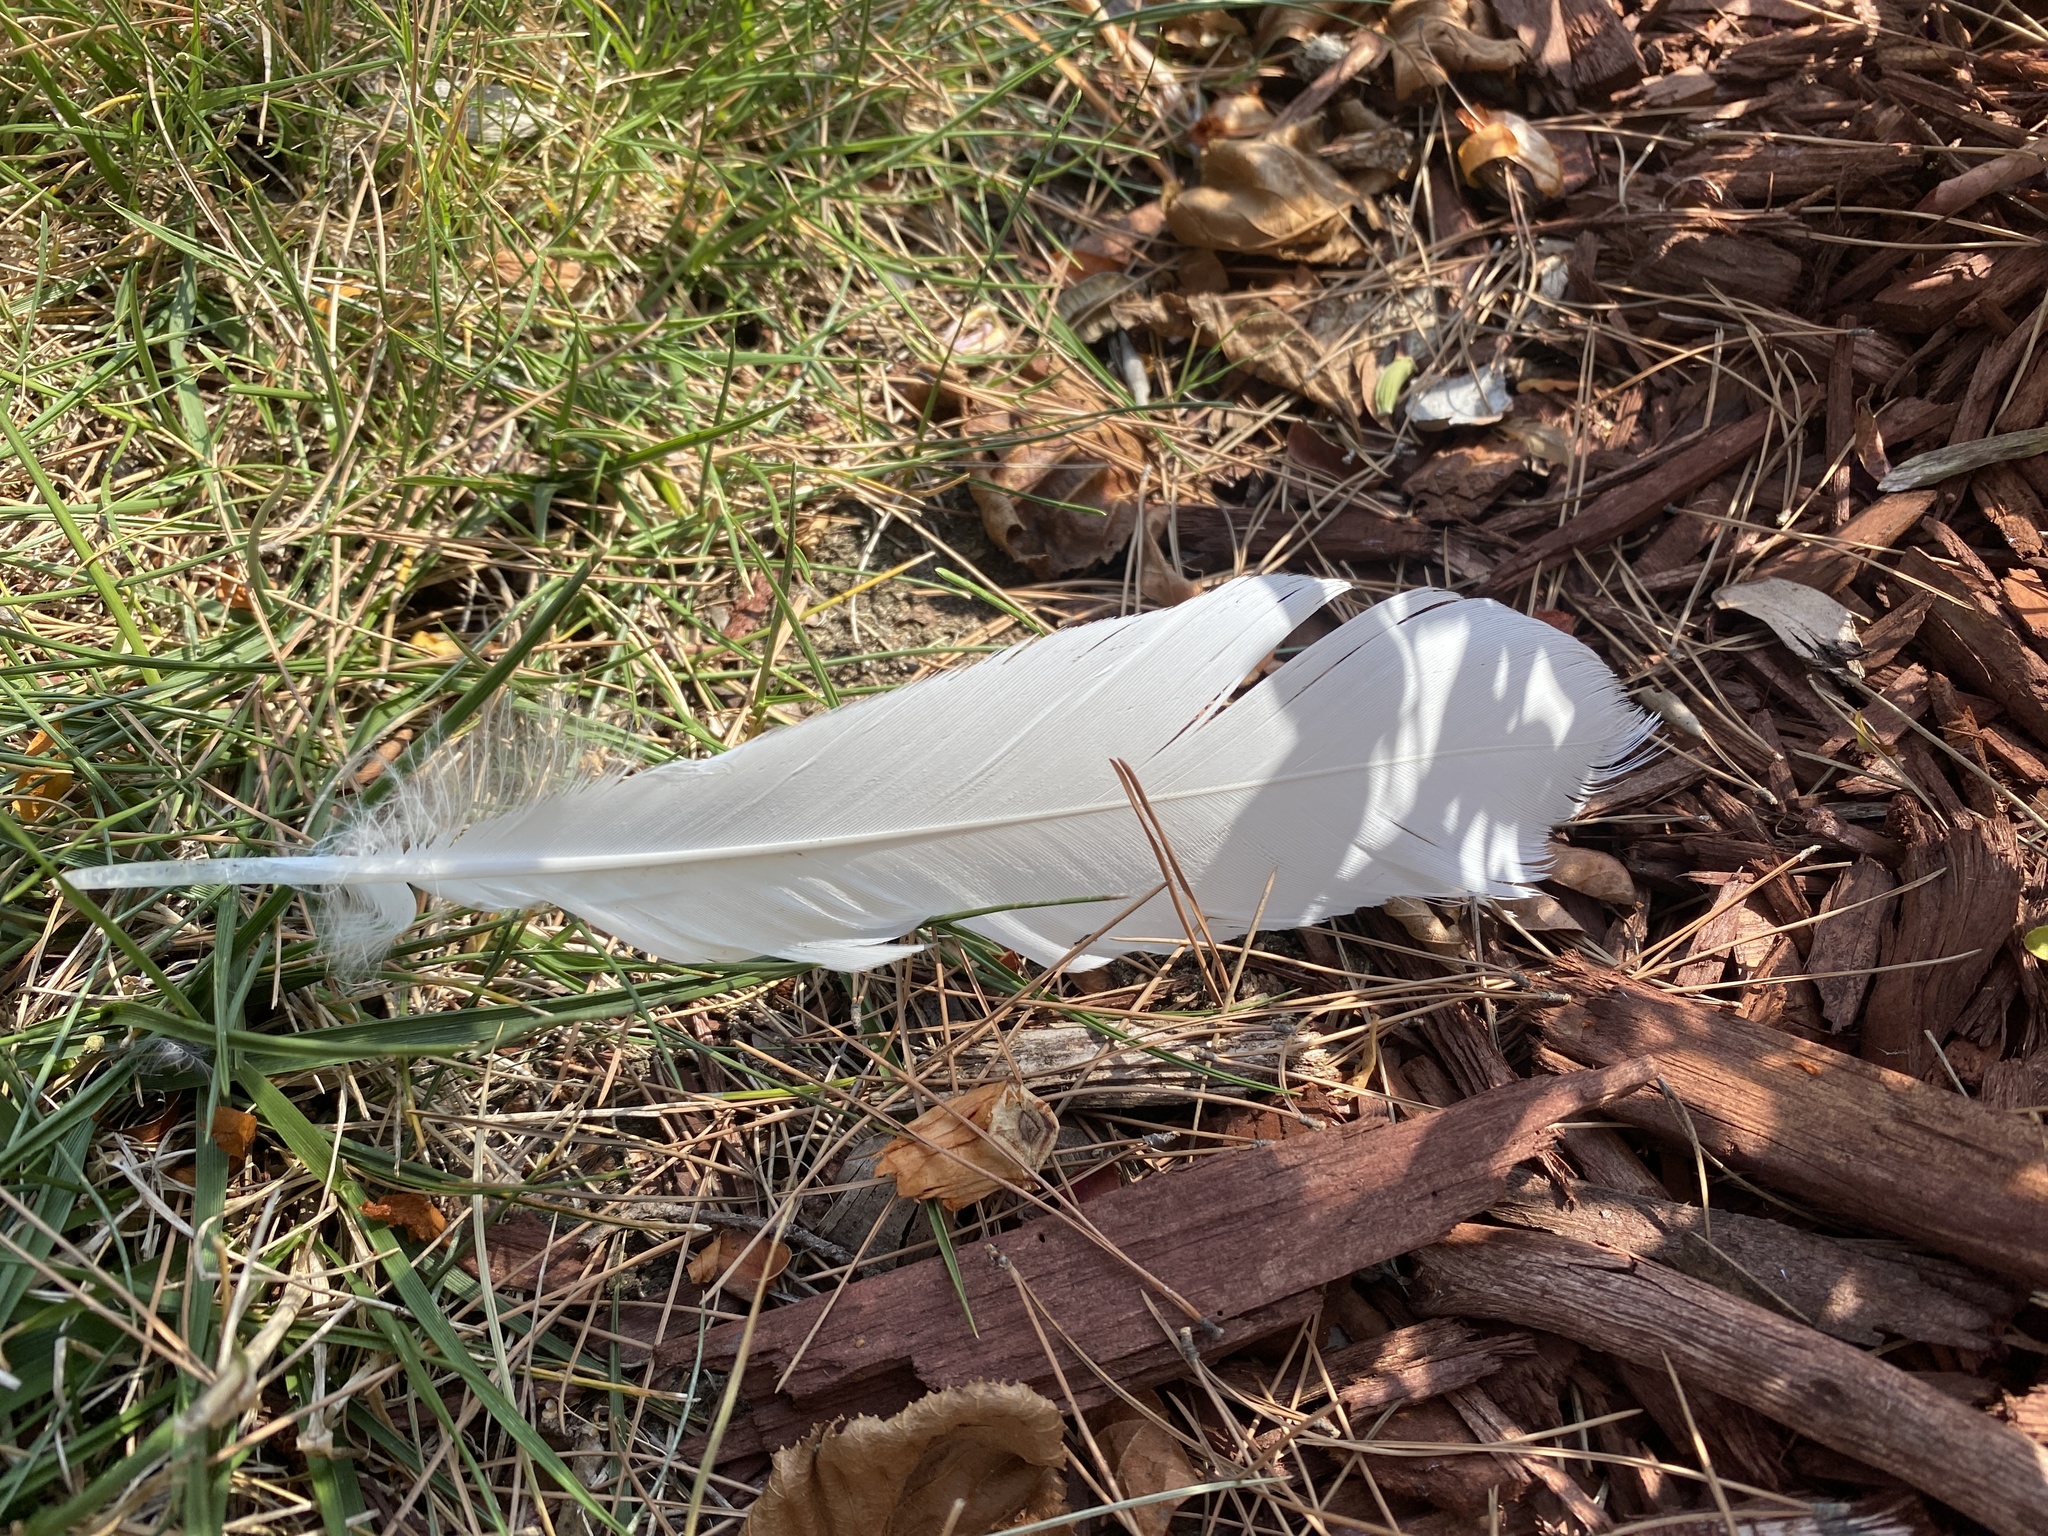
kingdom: Animalia
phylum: Chordata
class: Aves
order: Pelecaniformes
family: Ardeidae
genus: Ardea
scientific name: Ardea alba
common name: Great egret
